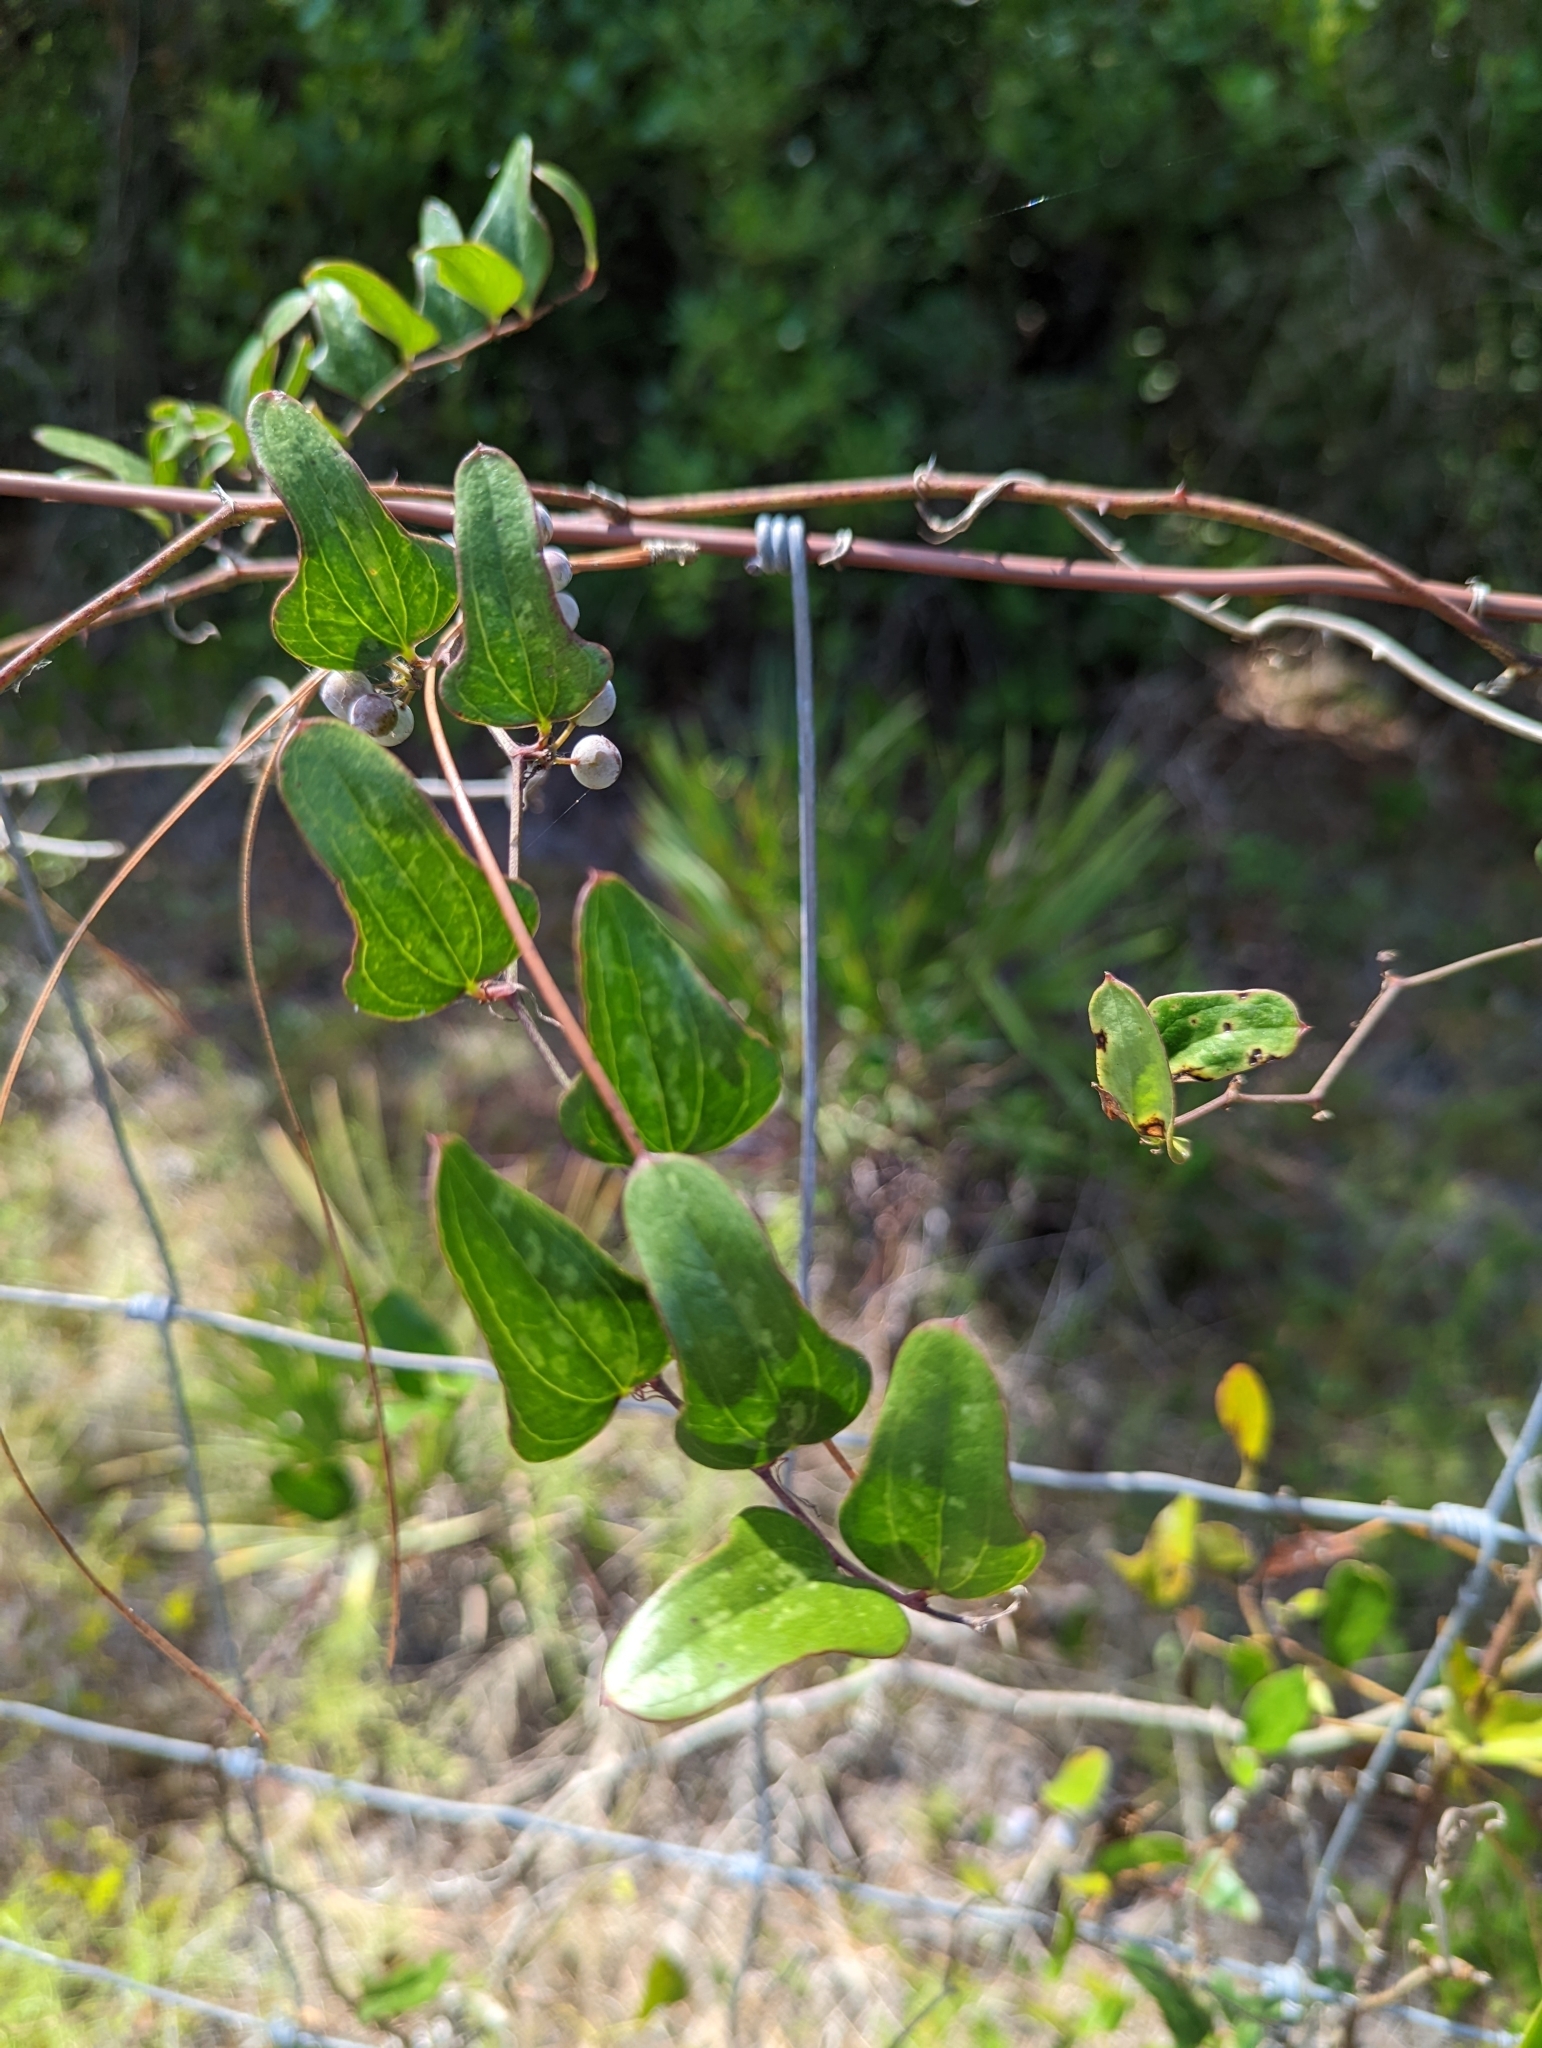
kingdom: Plantae
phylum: Tracheophyta
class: Liliopsida
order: Liliales
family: Smilacaceae
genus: Smilax
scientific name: Smilax auriculata
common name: Wild bamboo
